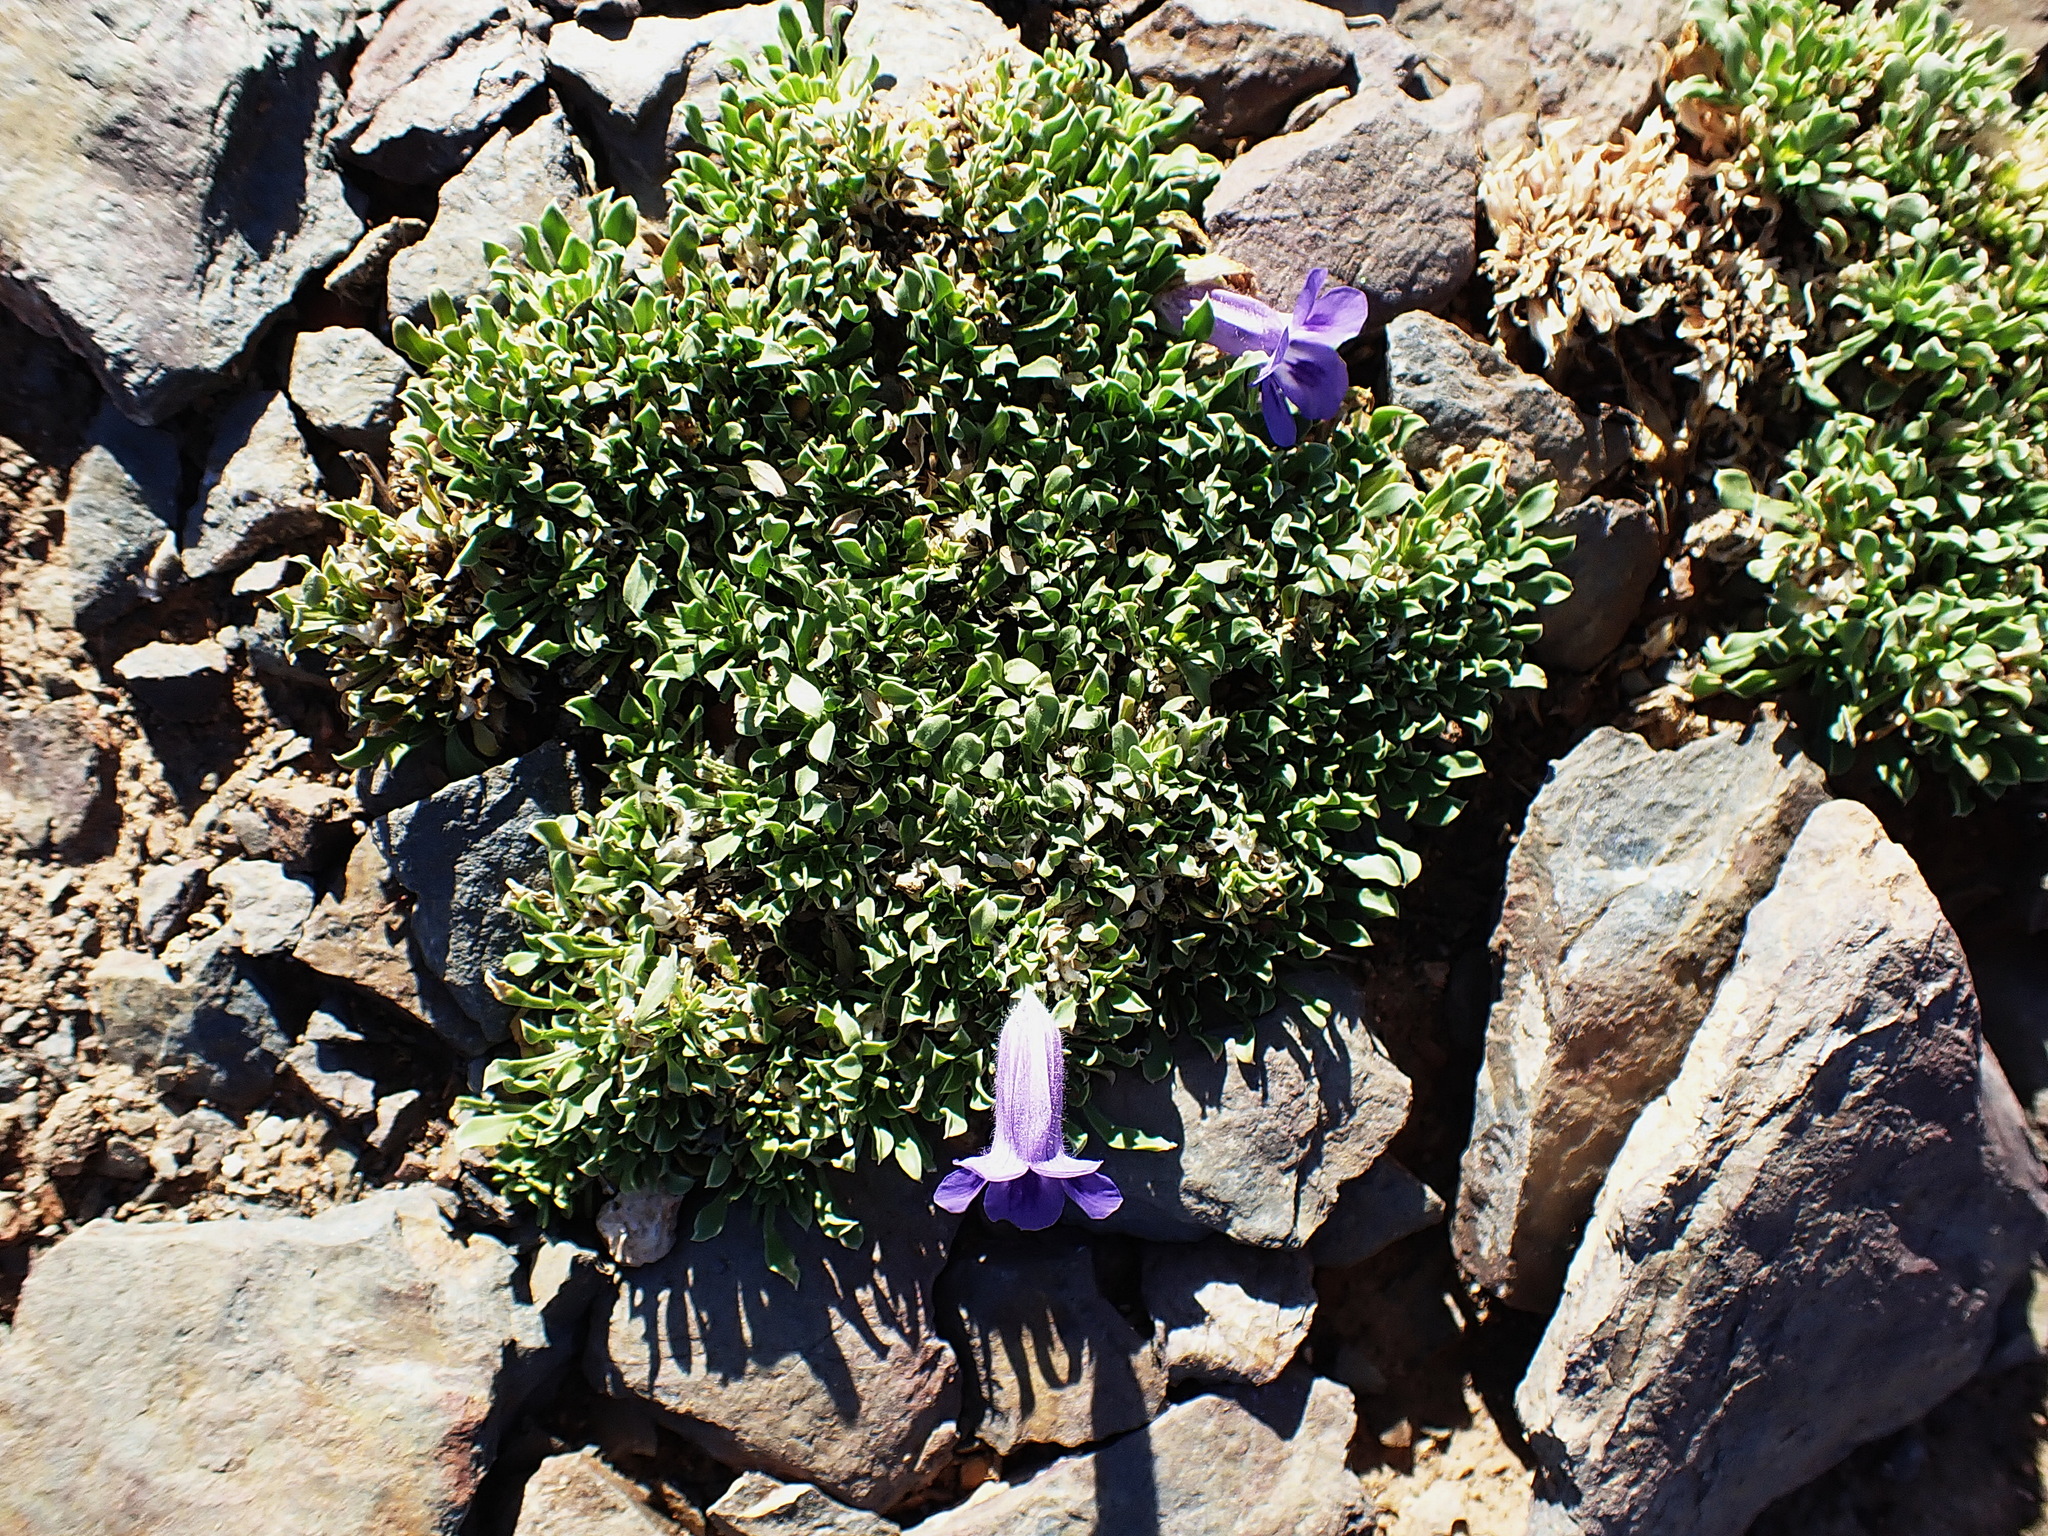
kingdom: Plantae
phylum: Tracheophyta
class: Magnoliopsida
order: Lamiales
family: Scrophulariaceae
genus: Aptosimum
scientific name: Aptosimum indivisum
